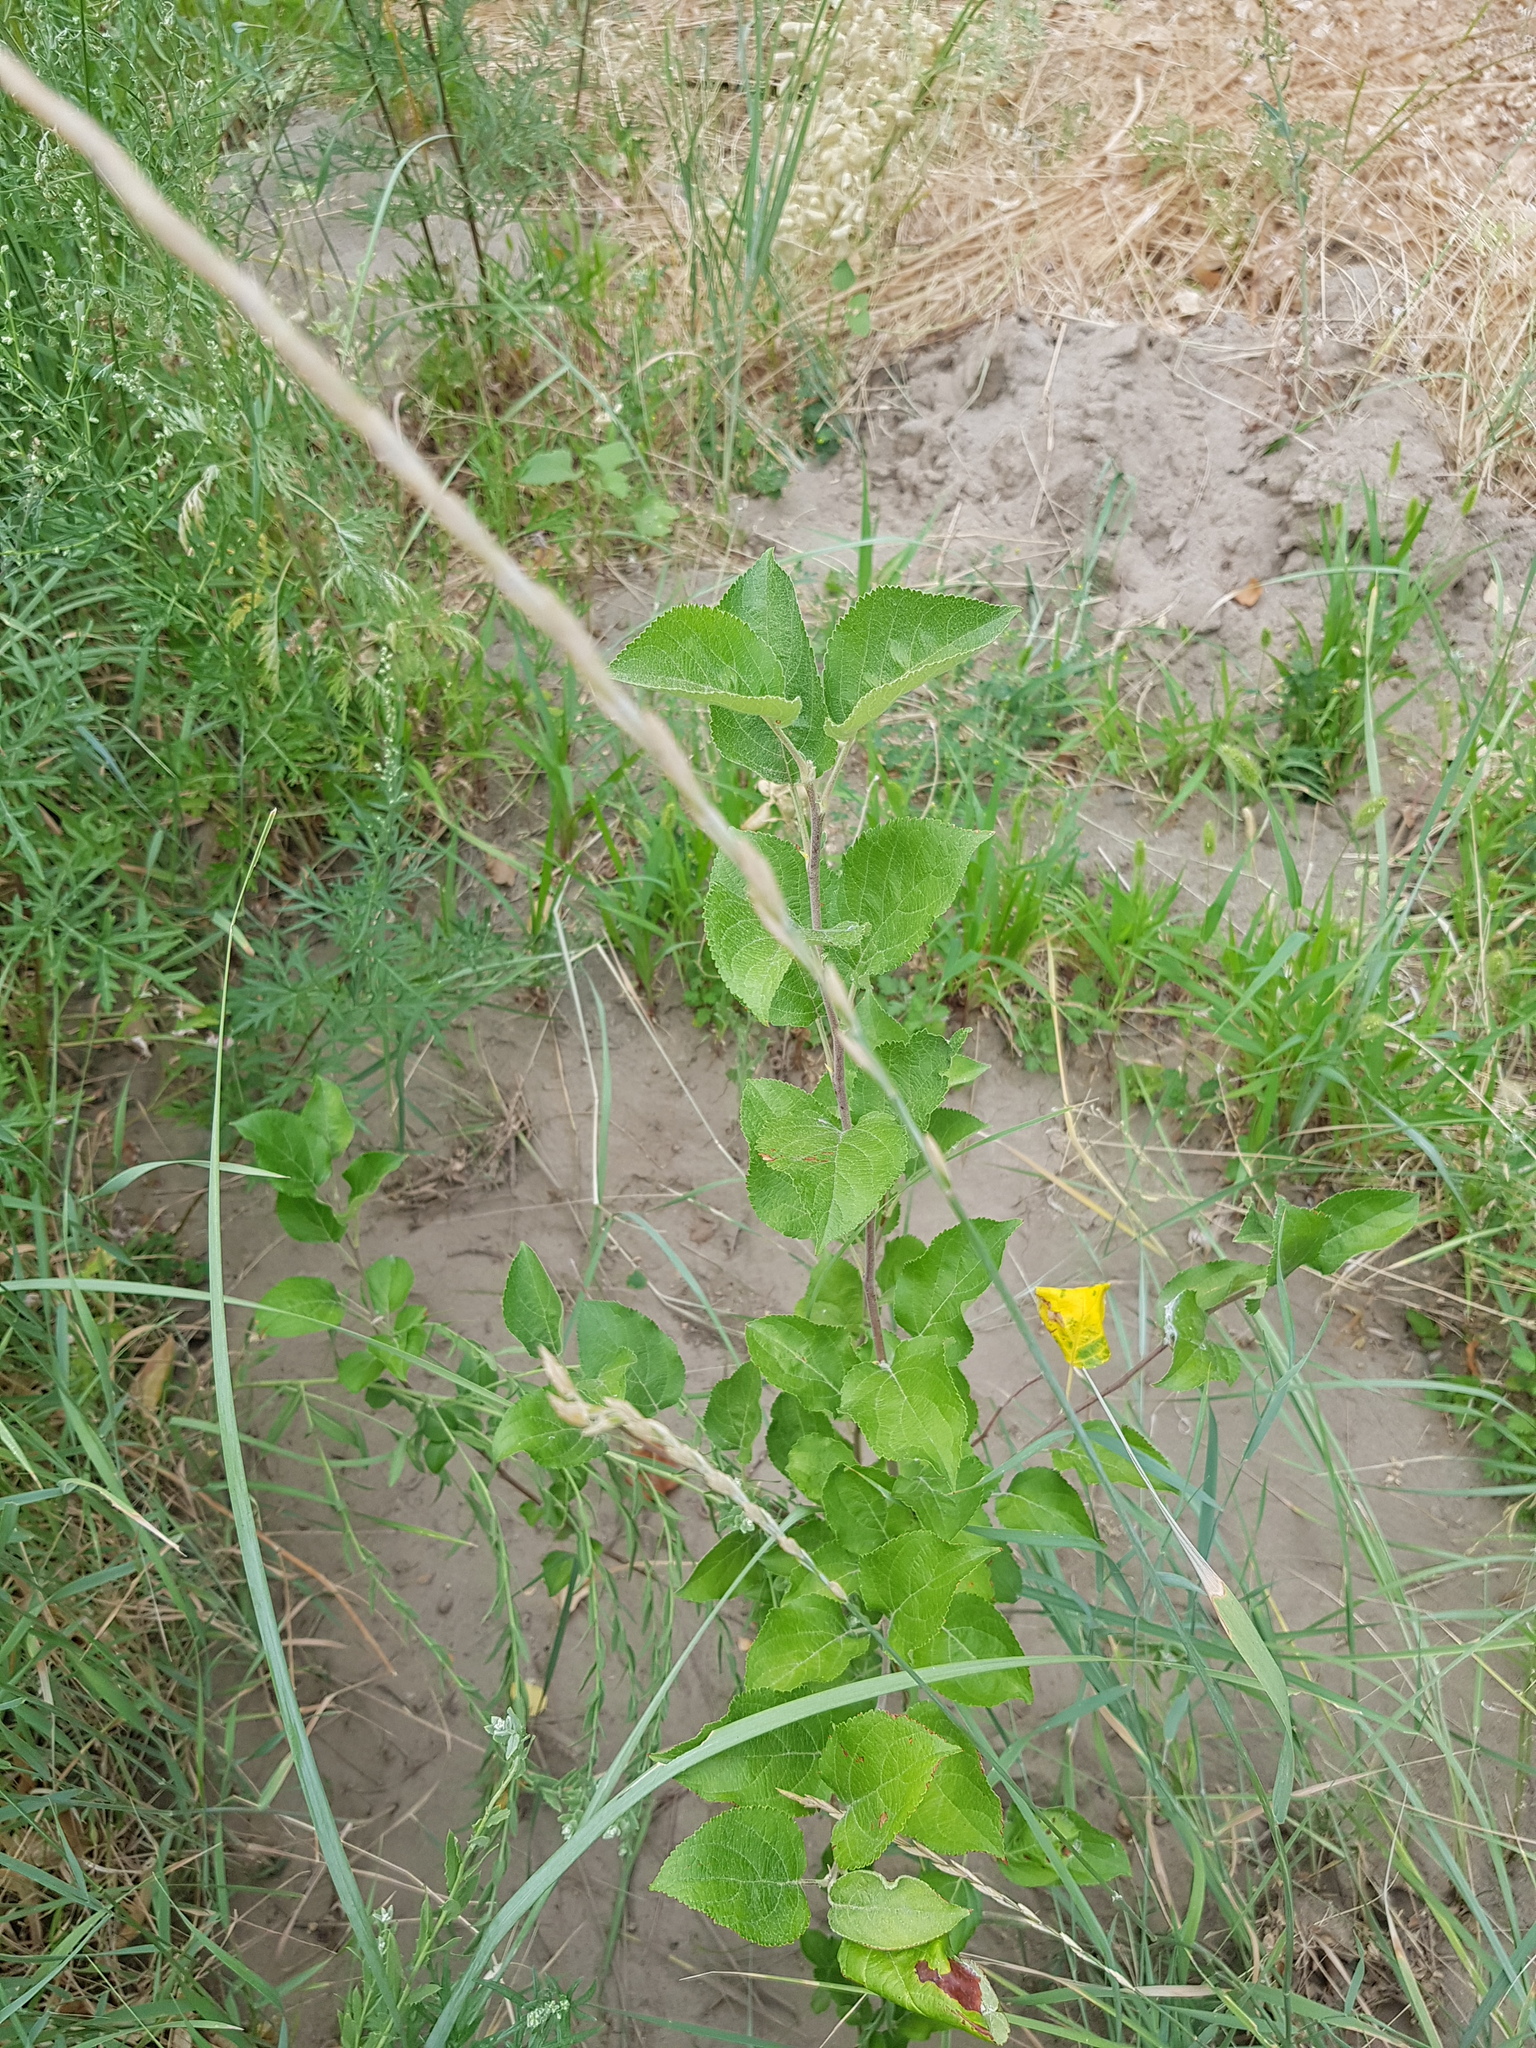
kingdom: Plantae
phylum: Tracheophyta
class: Magnoliopsida
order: Rosales
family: Rosaceae
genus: Malus
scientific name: Malus domestica
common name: Apple
